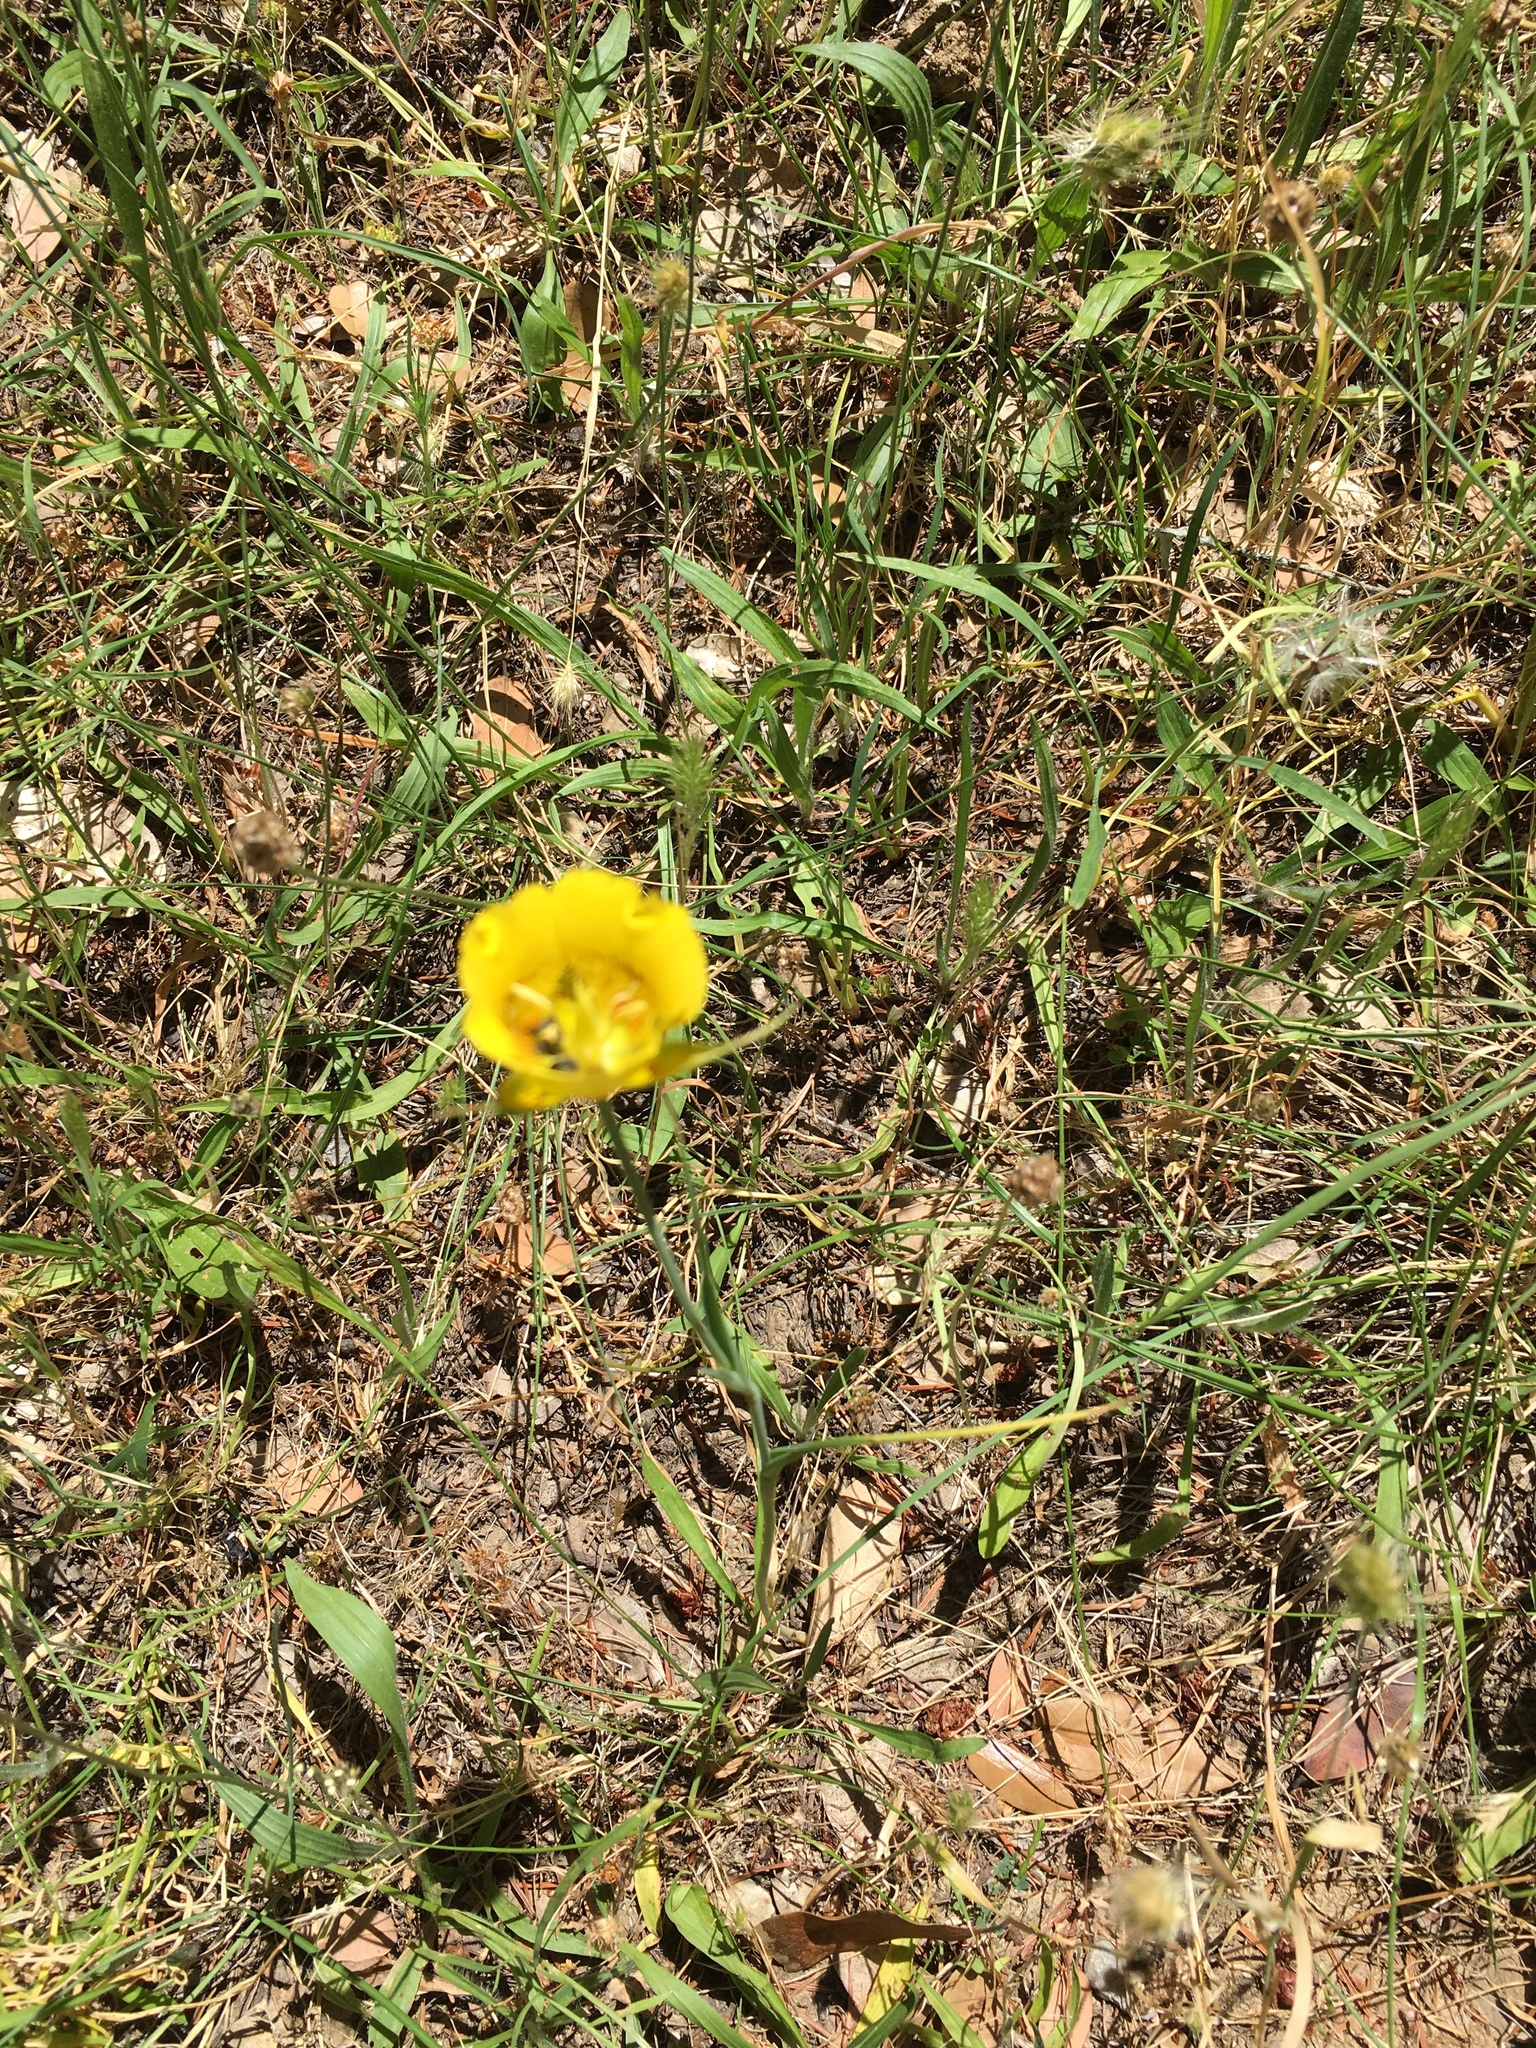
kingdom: Plantae
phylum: Tracheophyta
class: Liliopsida
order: Liliales
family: Liliaceae
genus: Calochortus
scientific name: Calochortus luteus
